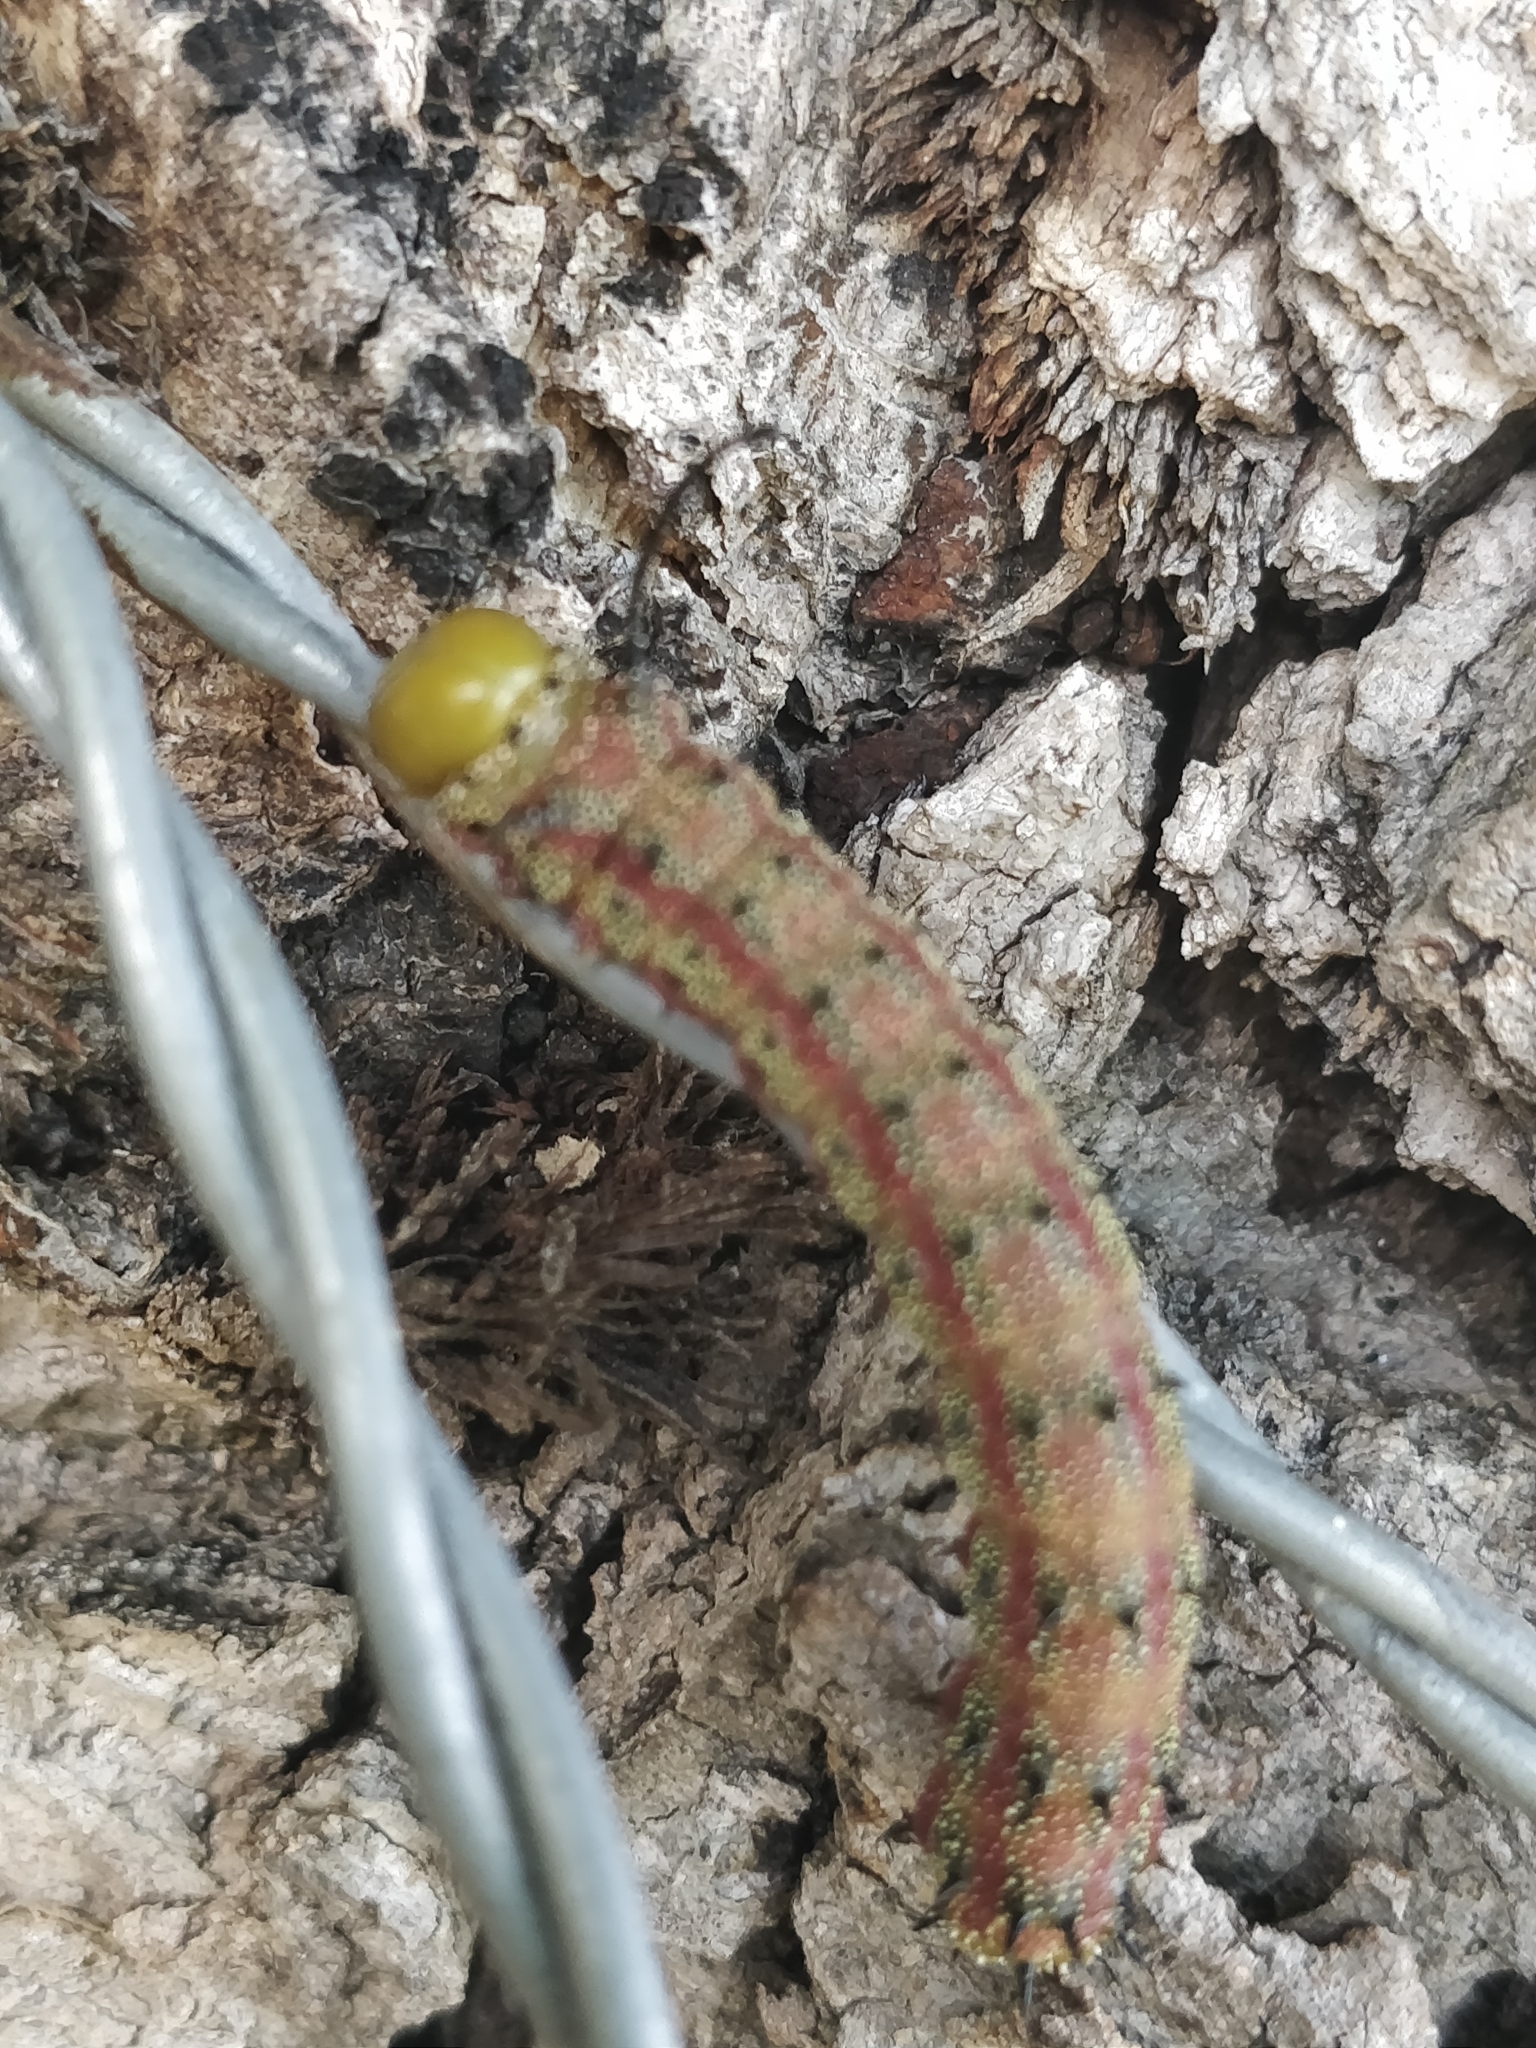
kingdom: Animalia
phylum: Arthropoda
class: Insecta
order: Lepidoptera
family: Saturniidae
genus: Anisota
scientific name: Anisota virginiensis
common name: Pink striped oakworm moth
